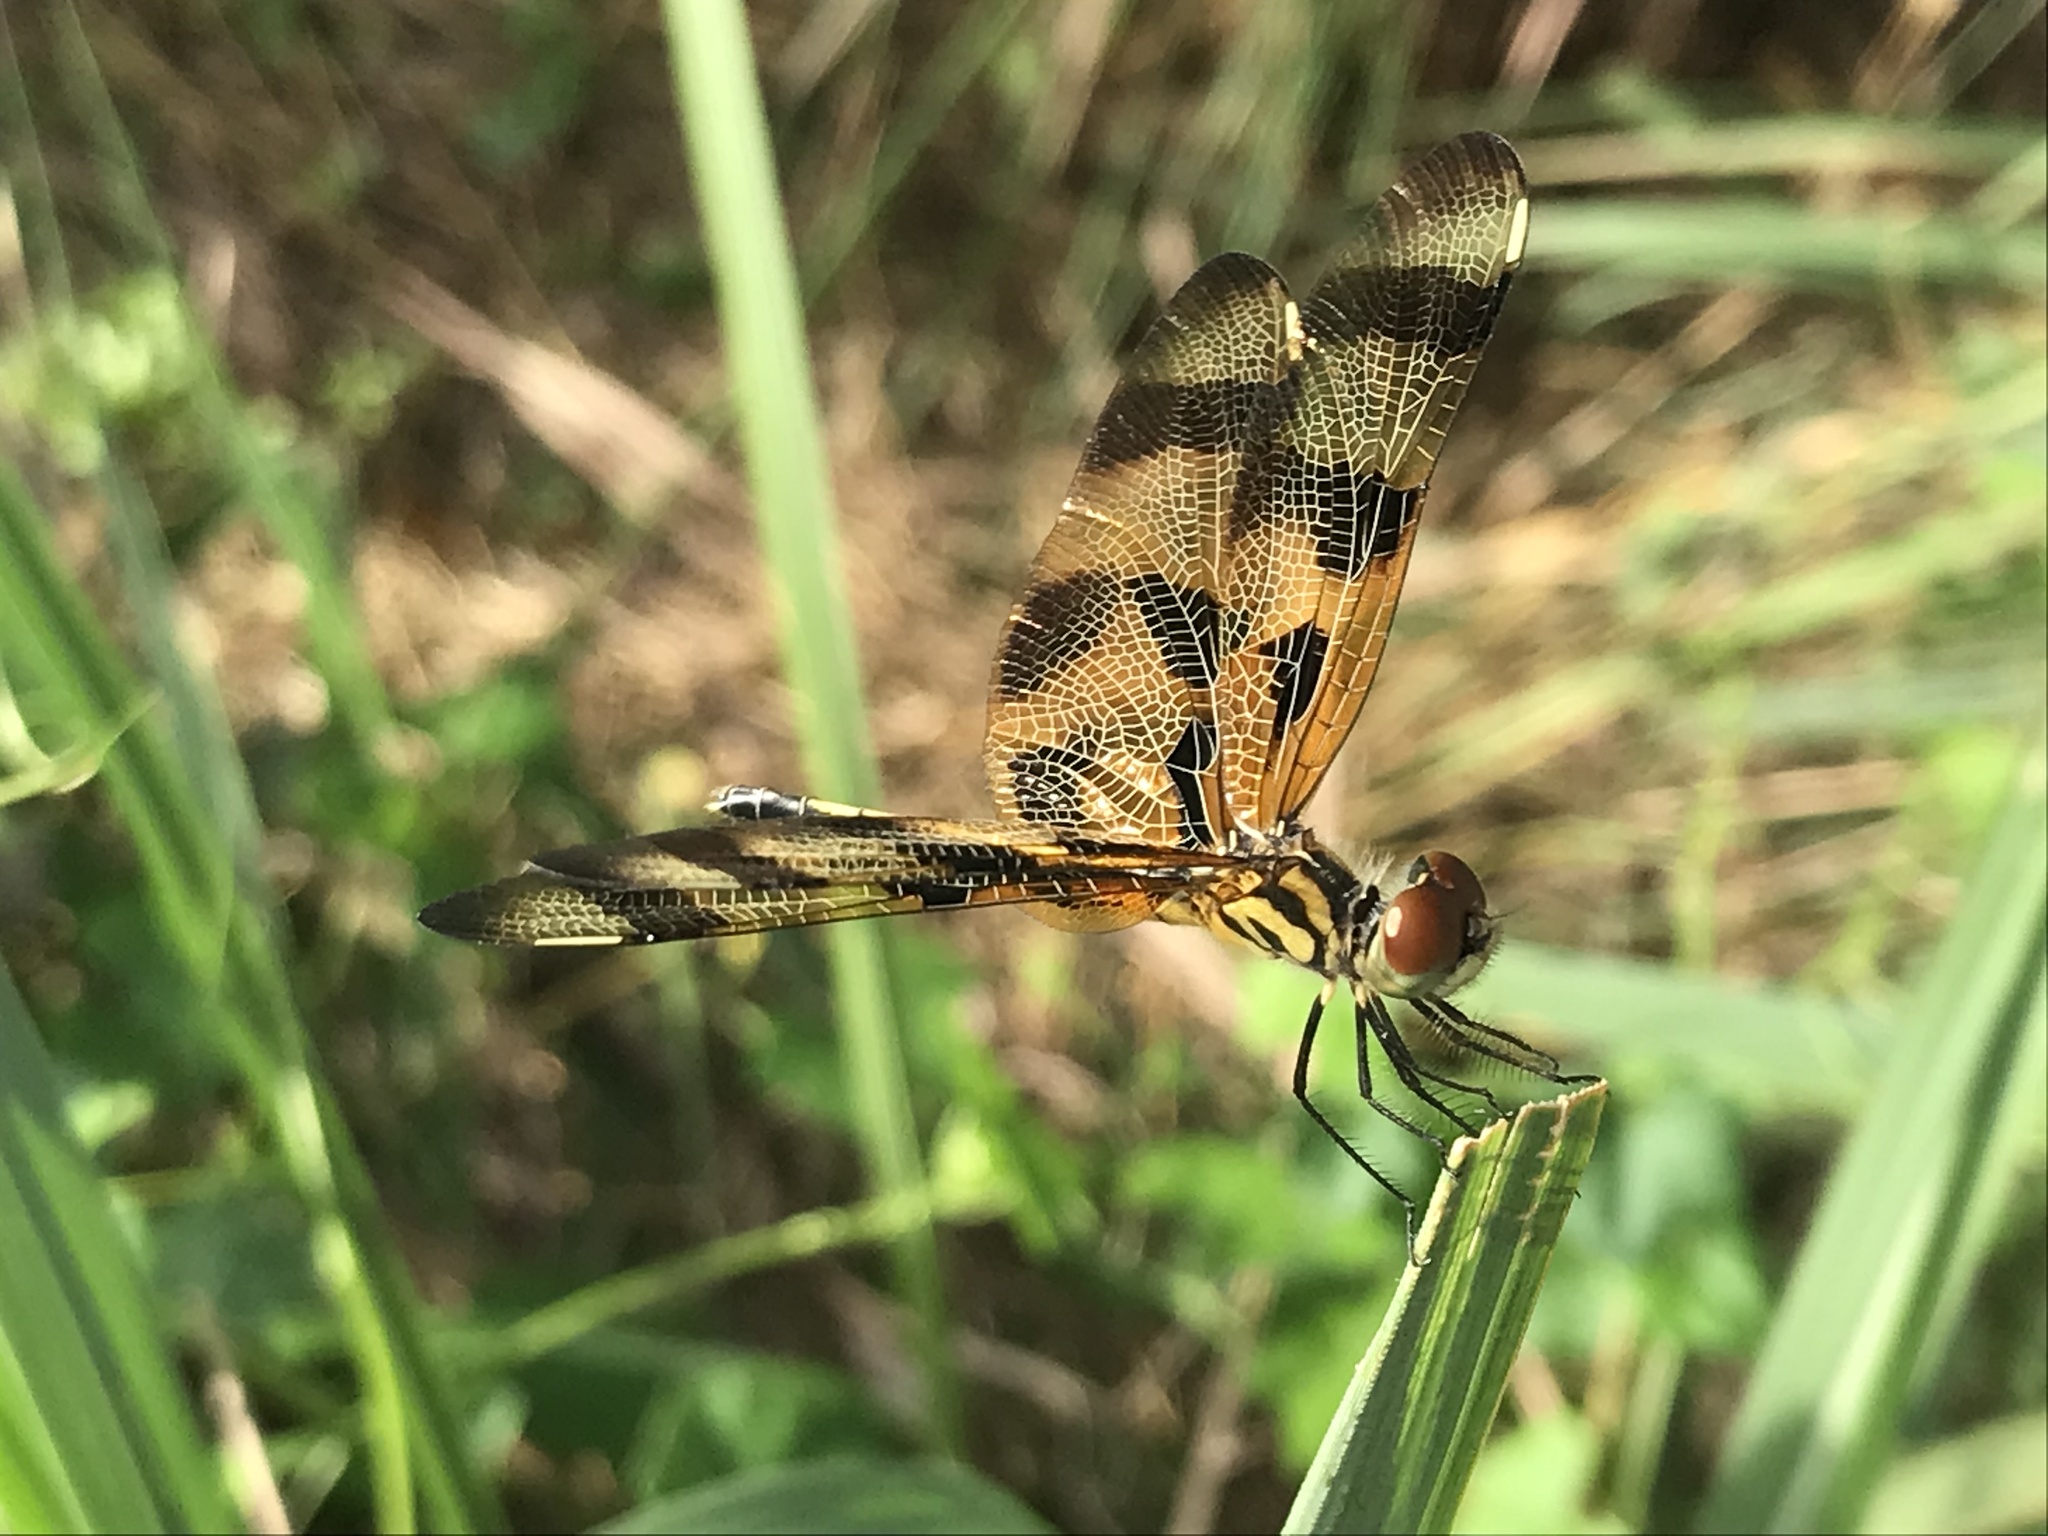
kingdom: Animalia
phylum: Arthropoda
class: Insecta
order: Odonata
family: Libellulidae
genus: Celithemis
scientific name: Celithemis eponina
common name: Halloween pennant
